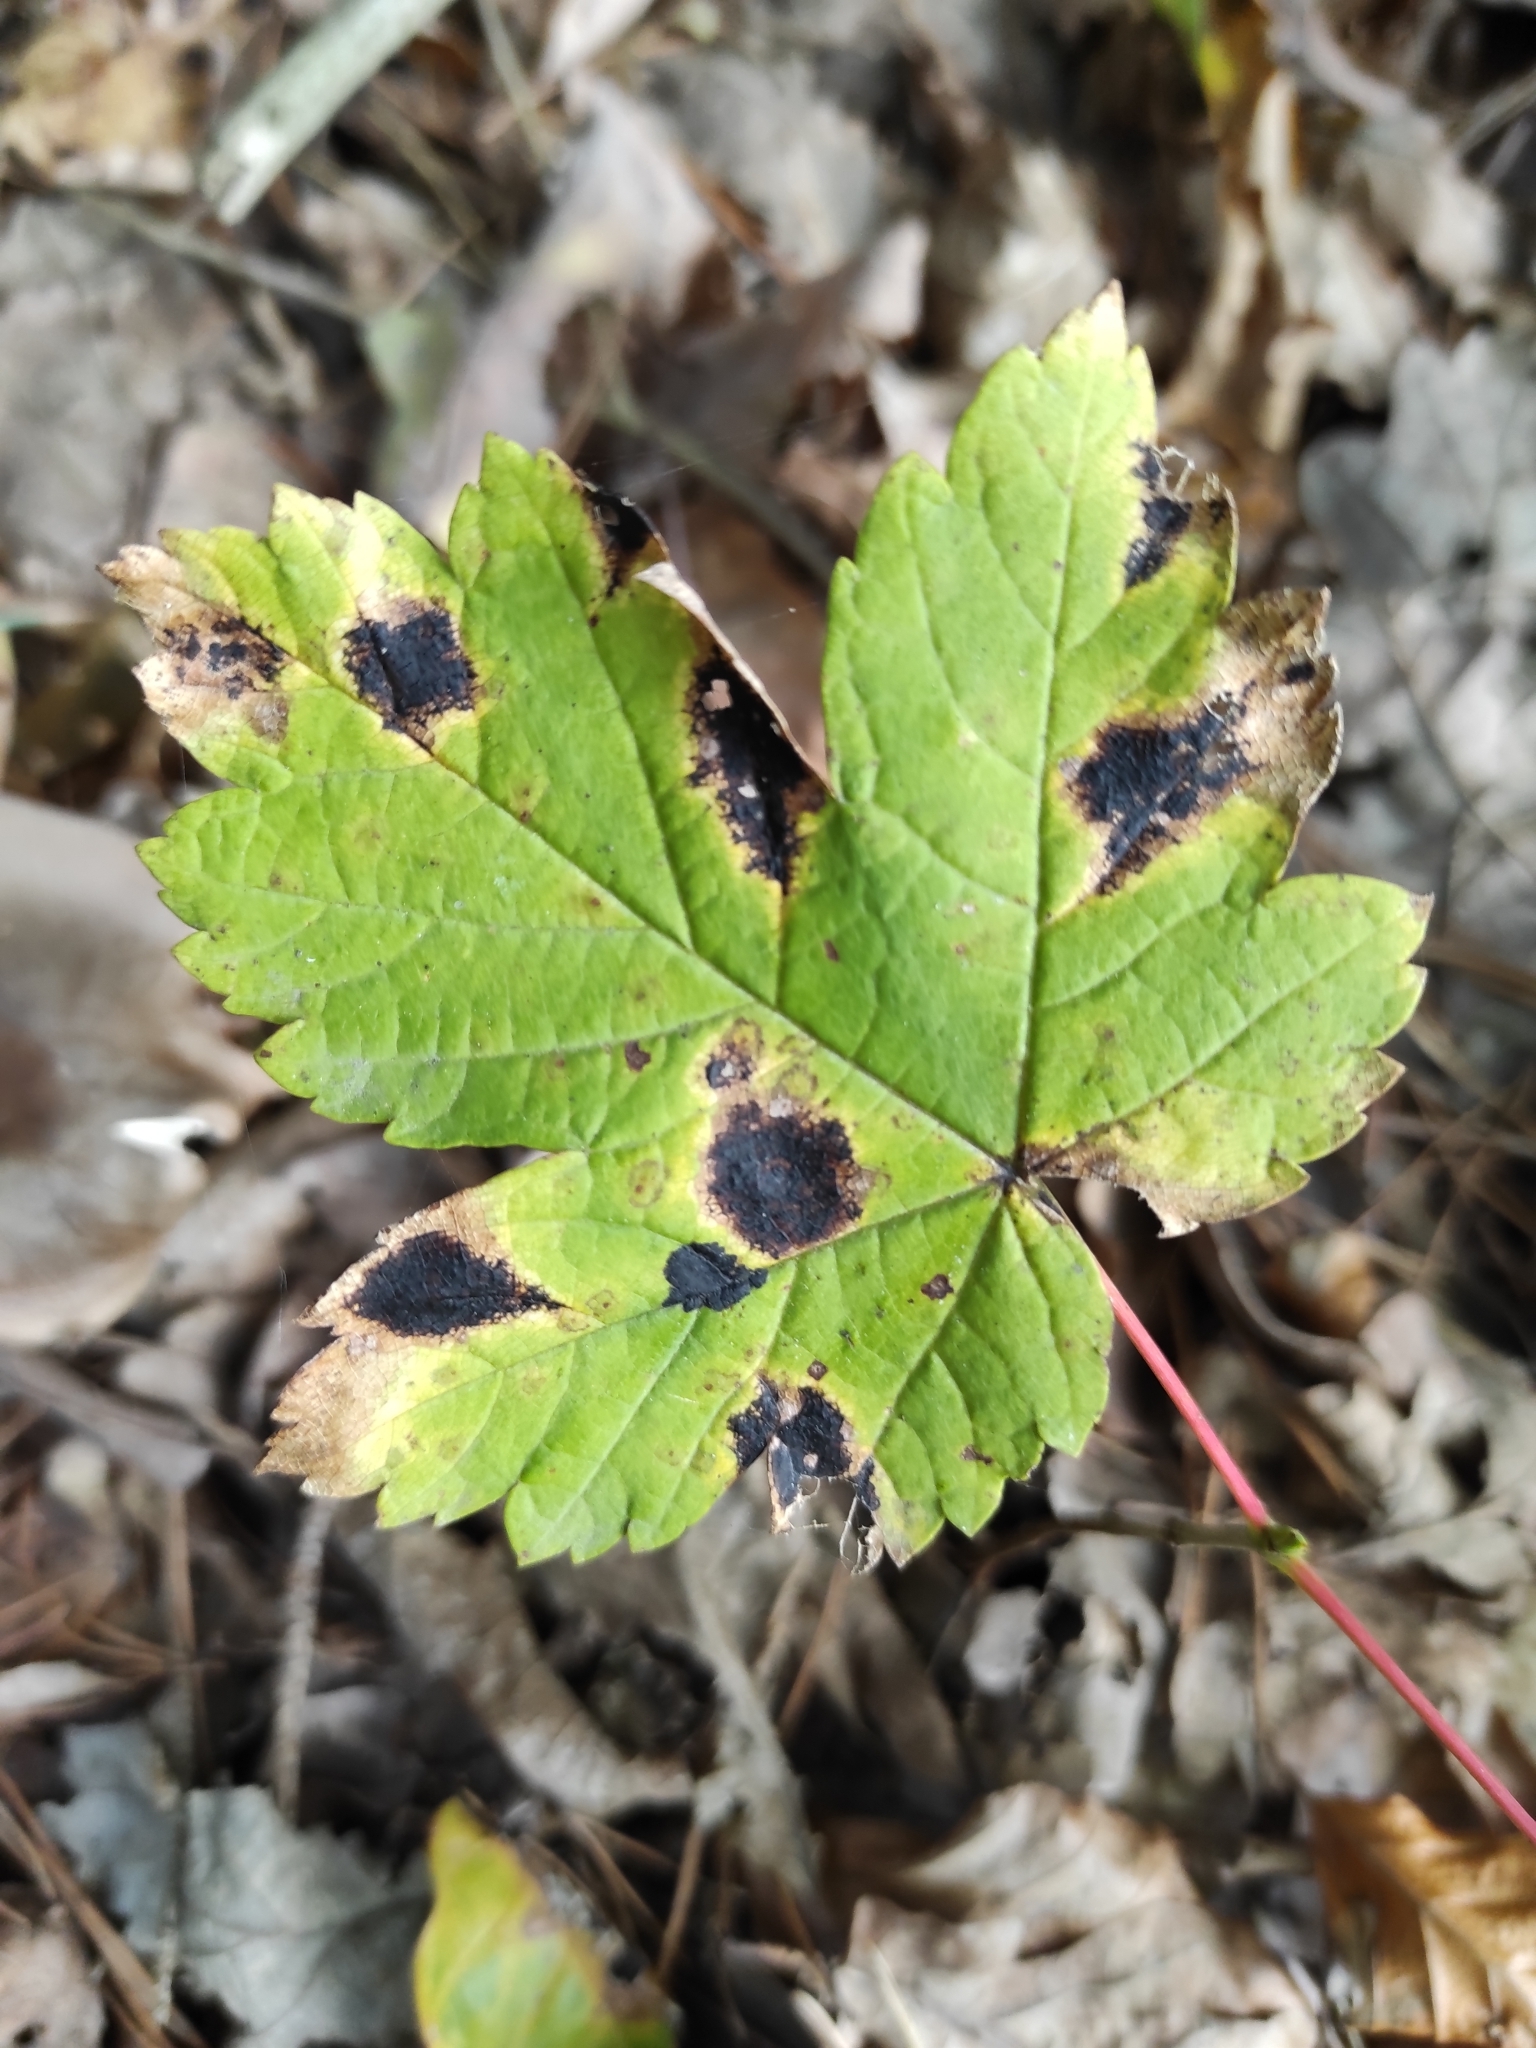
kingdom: Fungi
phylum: Ascomycota
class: Leotiomycetes
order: Rhytismatales
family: Rhytismataceae
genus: Rhytisma
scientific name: Rhytisma acerinum
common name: European tar spot
